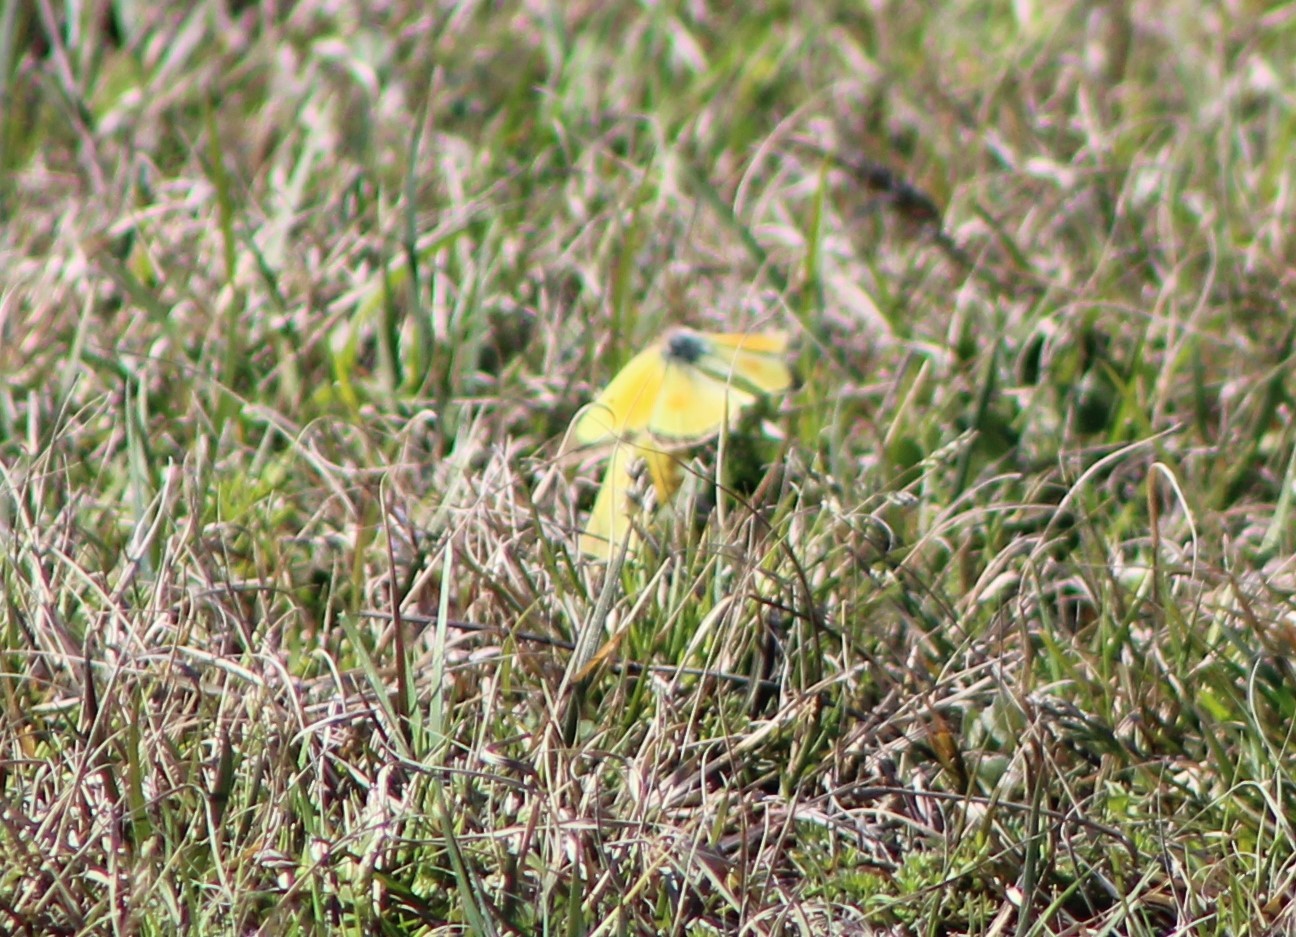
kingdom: Animalia
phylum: Arthropoda
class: Insecta
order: Lepidoptera
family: Pieridae
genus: Colias
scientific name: Colias eurytheme
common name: Alfalfa butterfly
